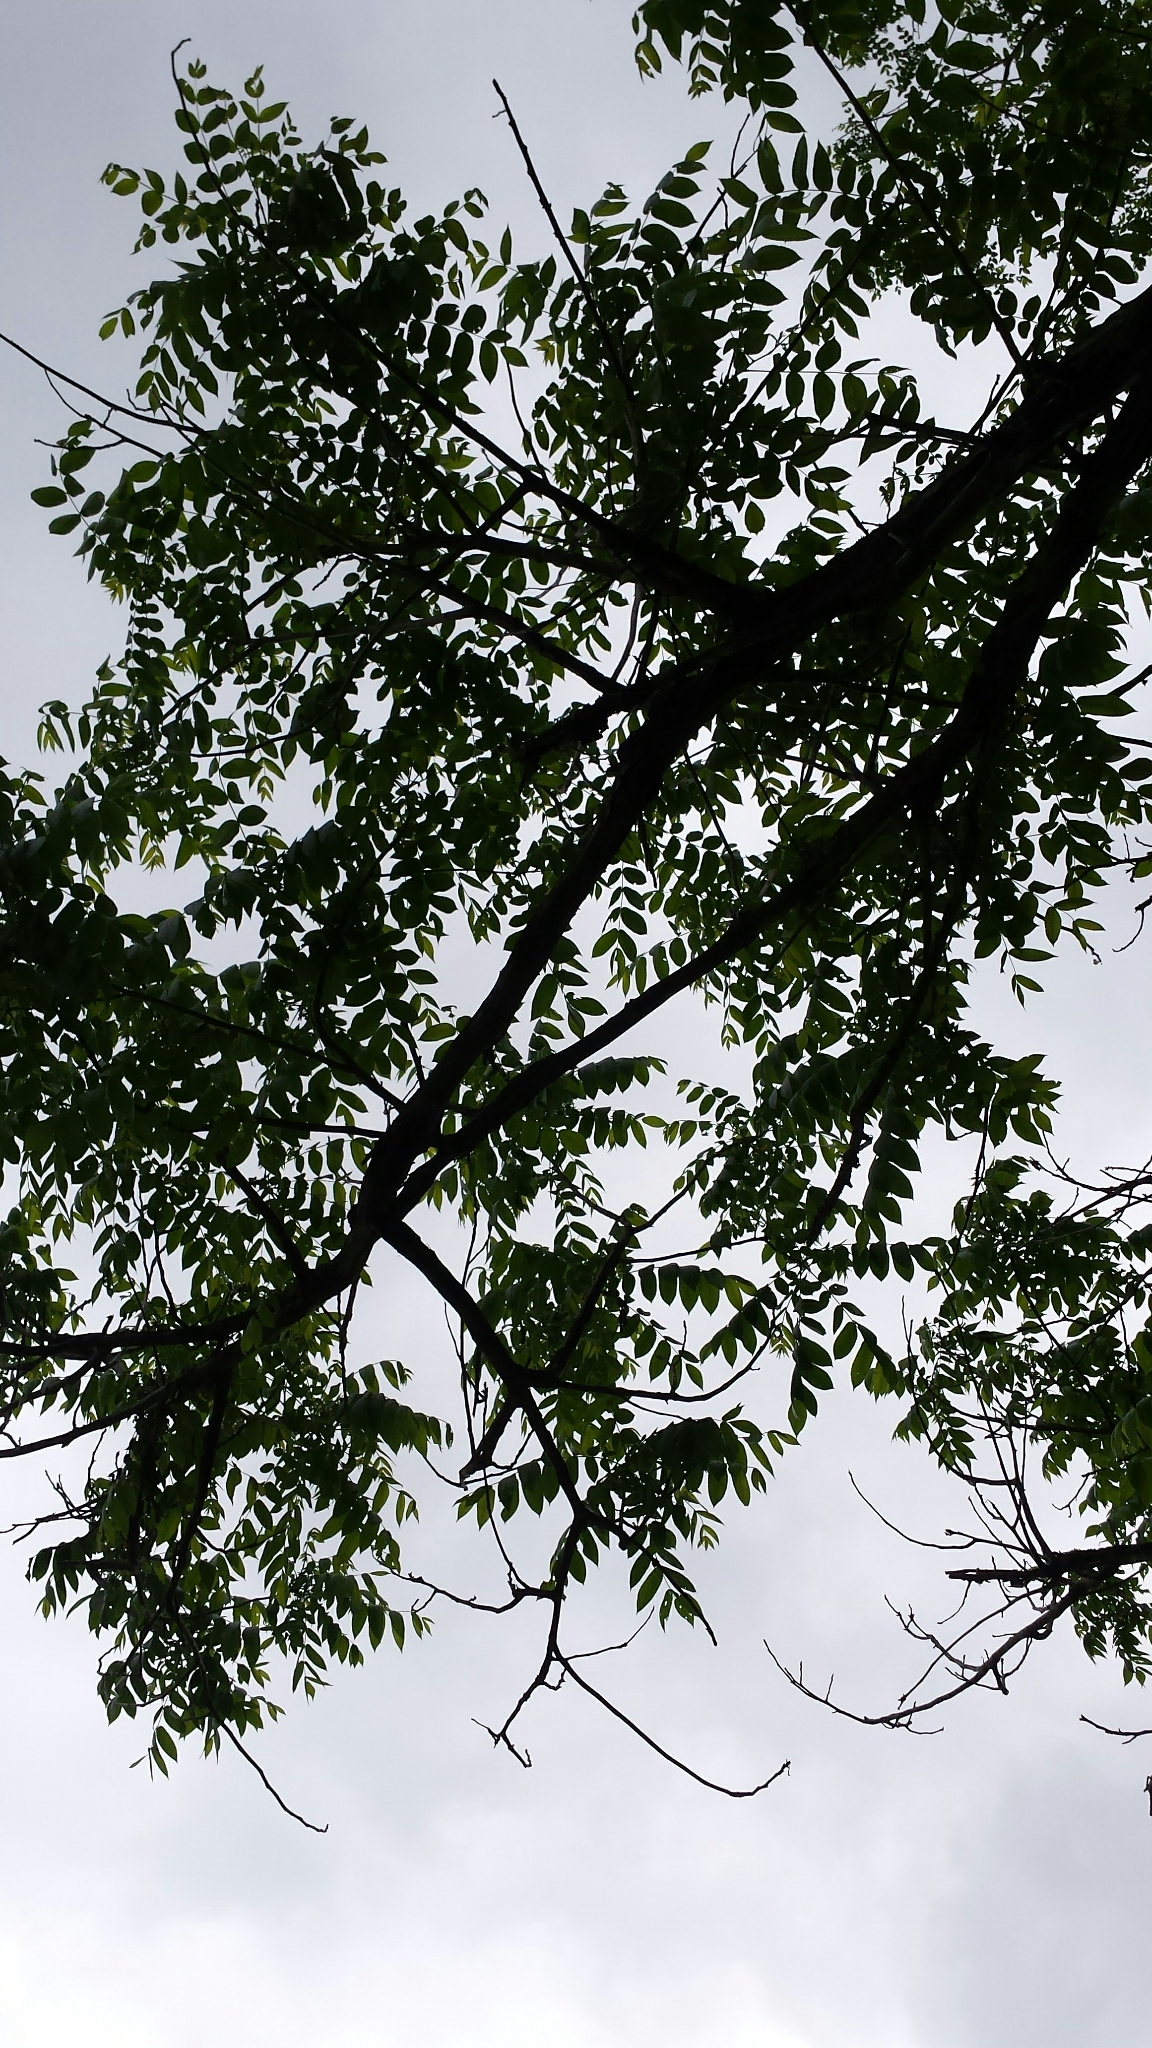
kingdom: Plantae
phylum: Tracheophyta
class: Magnoliopsida
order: Fagales
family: Juglandaceae
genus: Juglans
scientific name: Juglans cinerea
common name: Butternut
